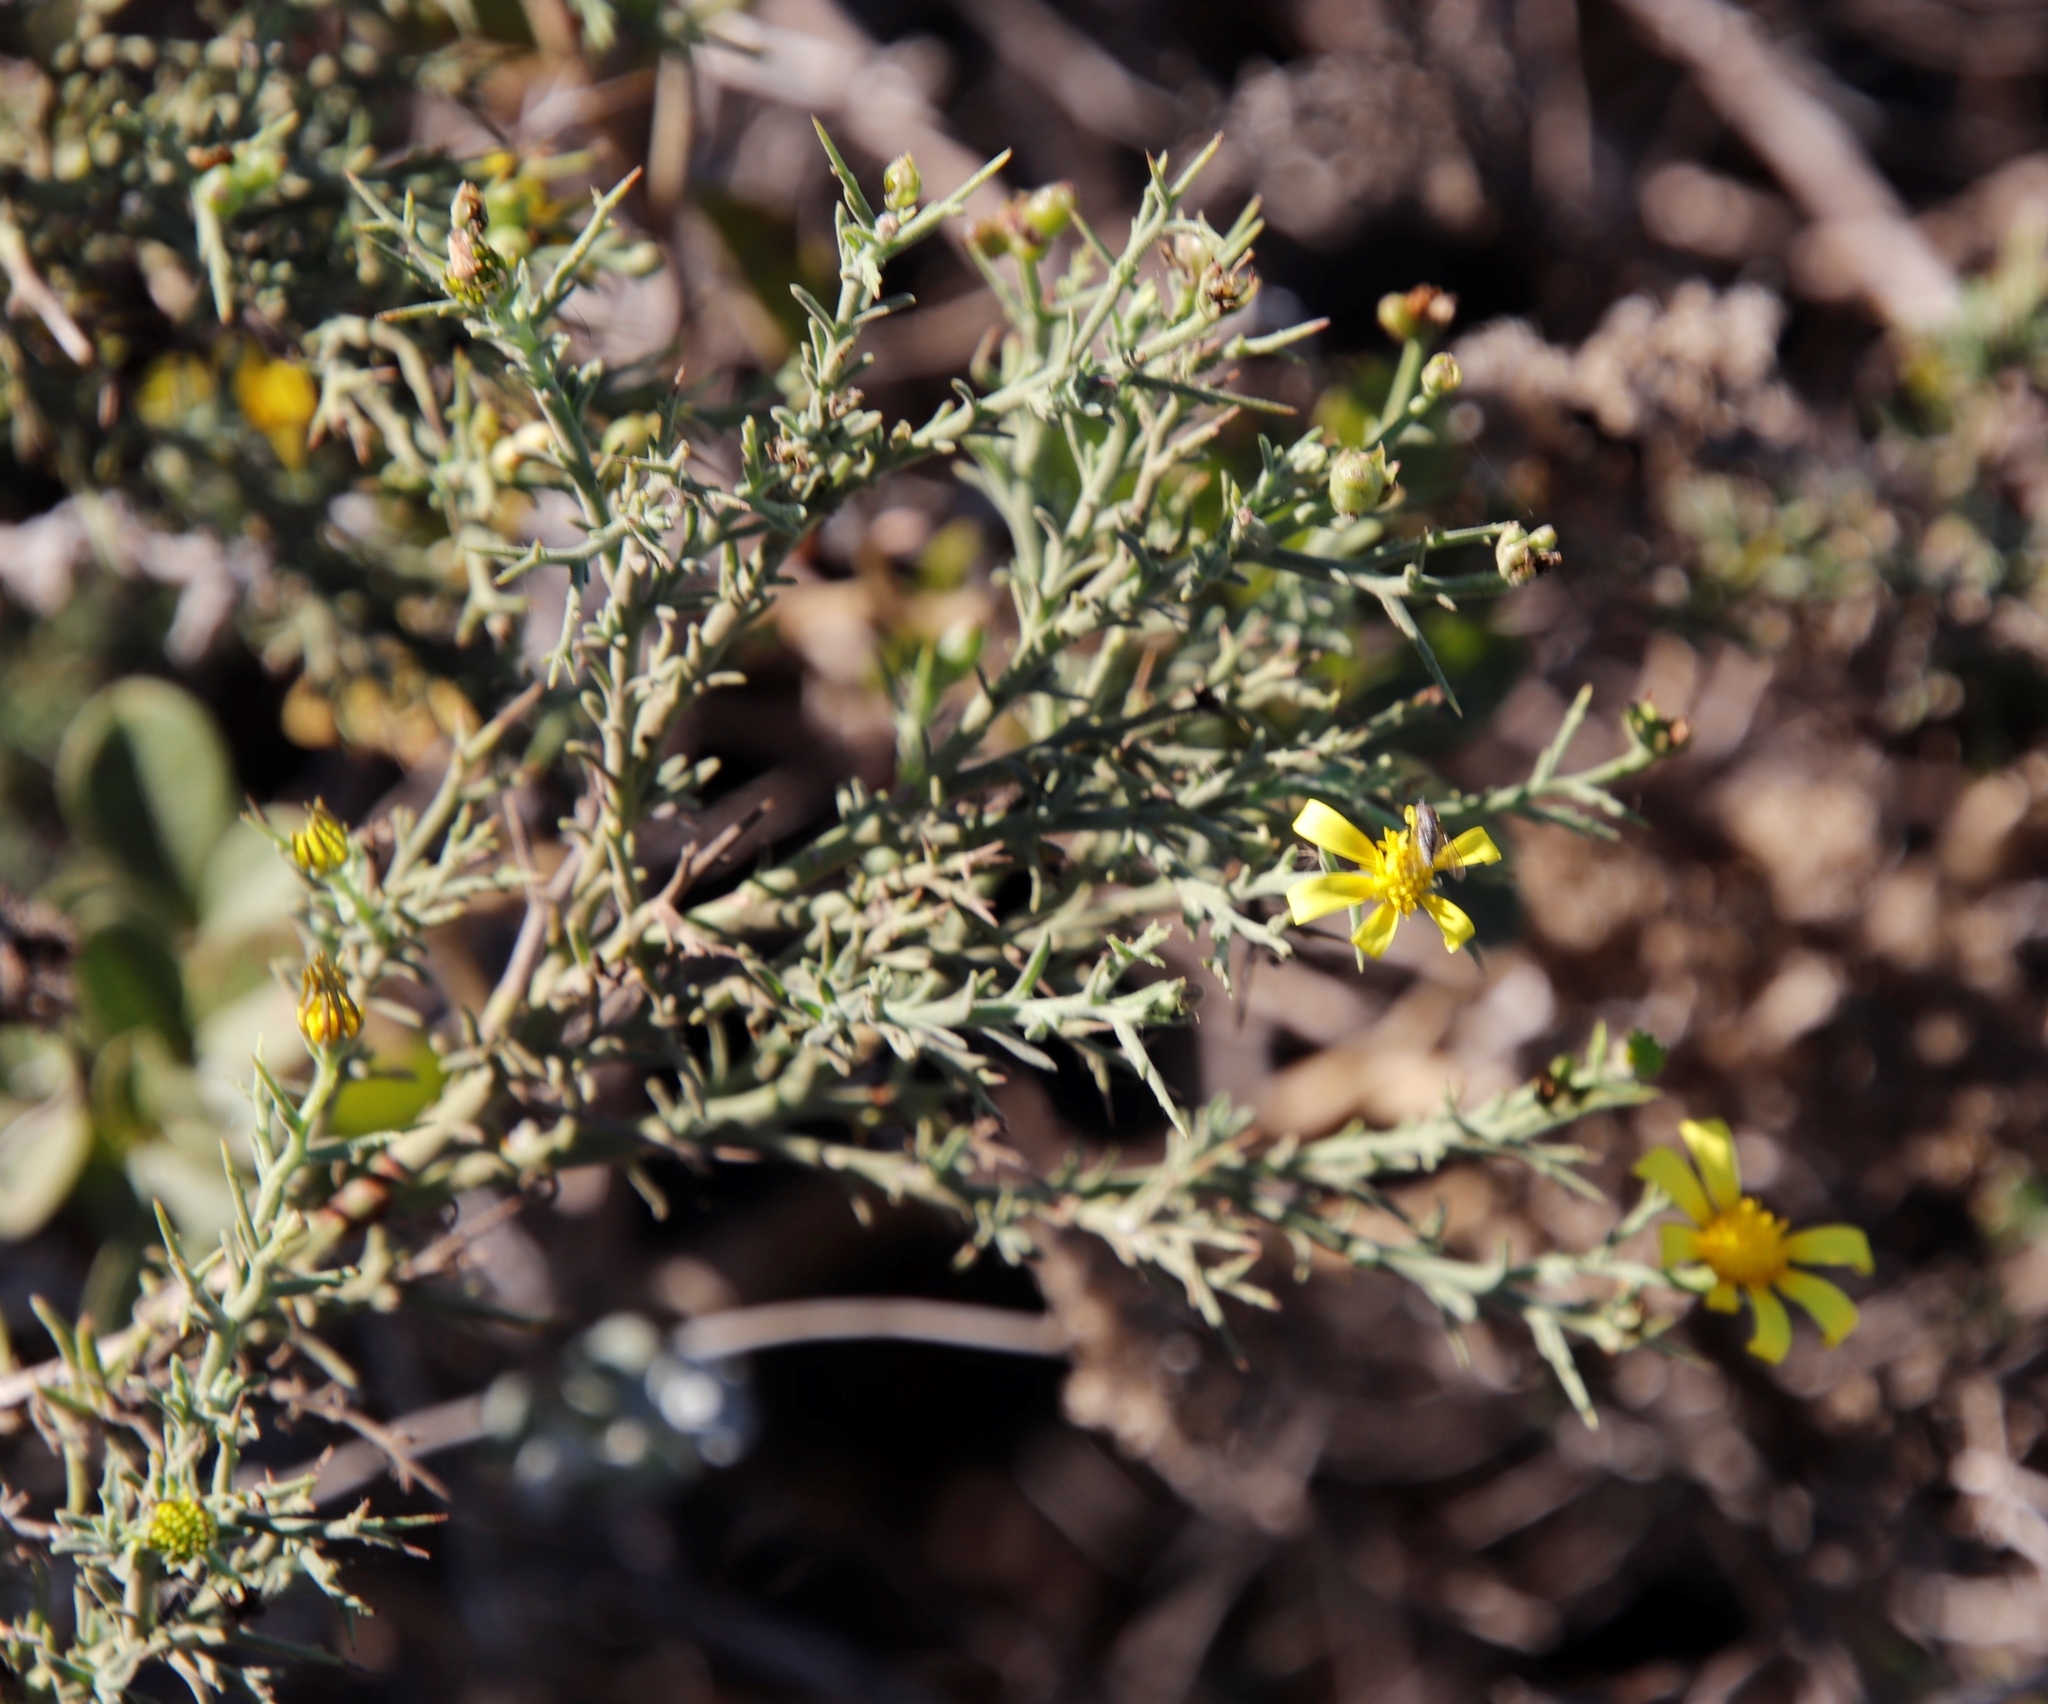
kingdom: Plantae
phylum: Tracheophyta
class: Magnoliopsida
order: Asterales
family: Asteraceae
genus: Osteospermum
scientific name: Osteospermum spinosum
